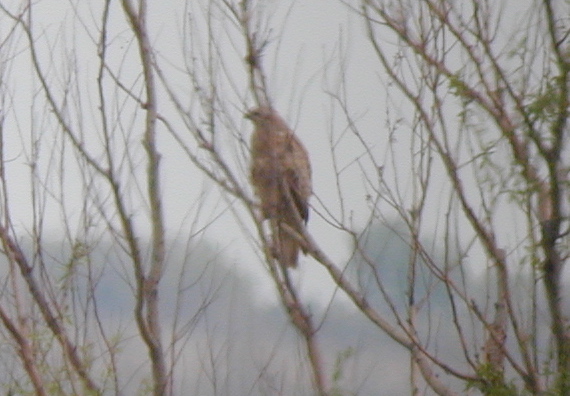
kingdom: Animalia
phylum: Chordata
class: Aves
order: Accipitriformes
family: Accipitridae
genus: Buteo
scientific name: Buteo rufinus
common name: Long-legged buzzard
